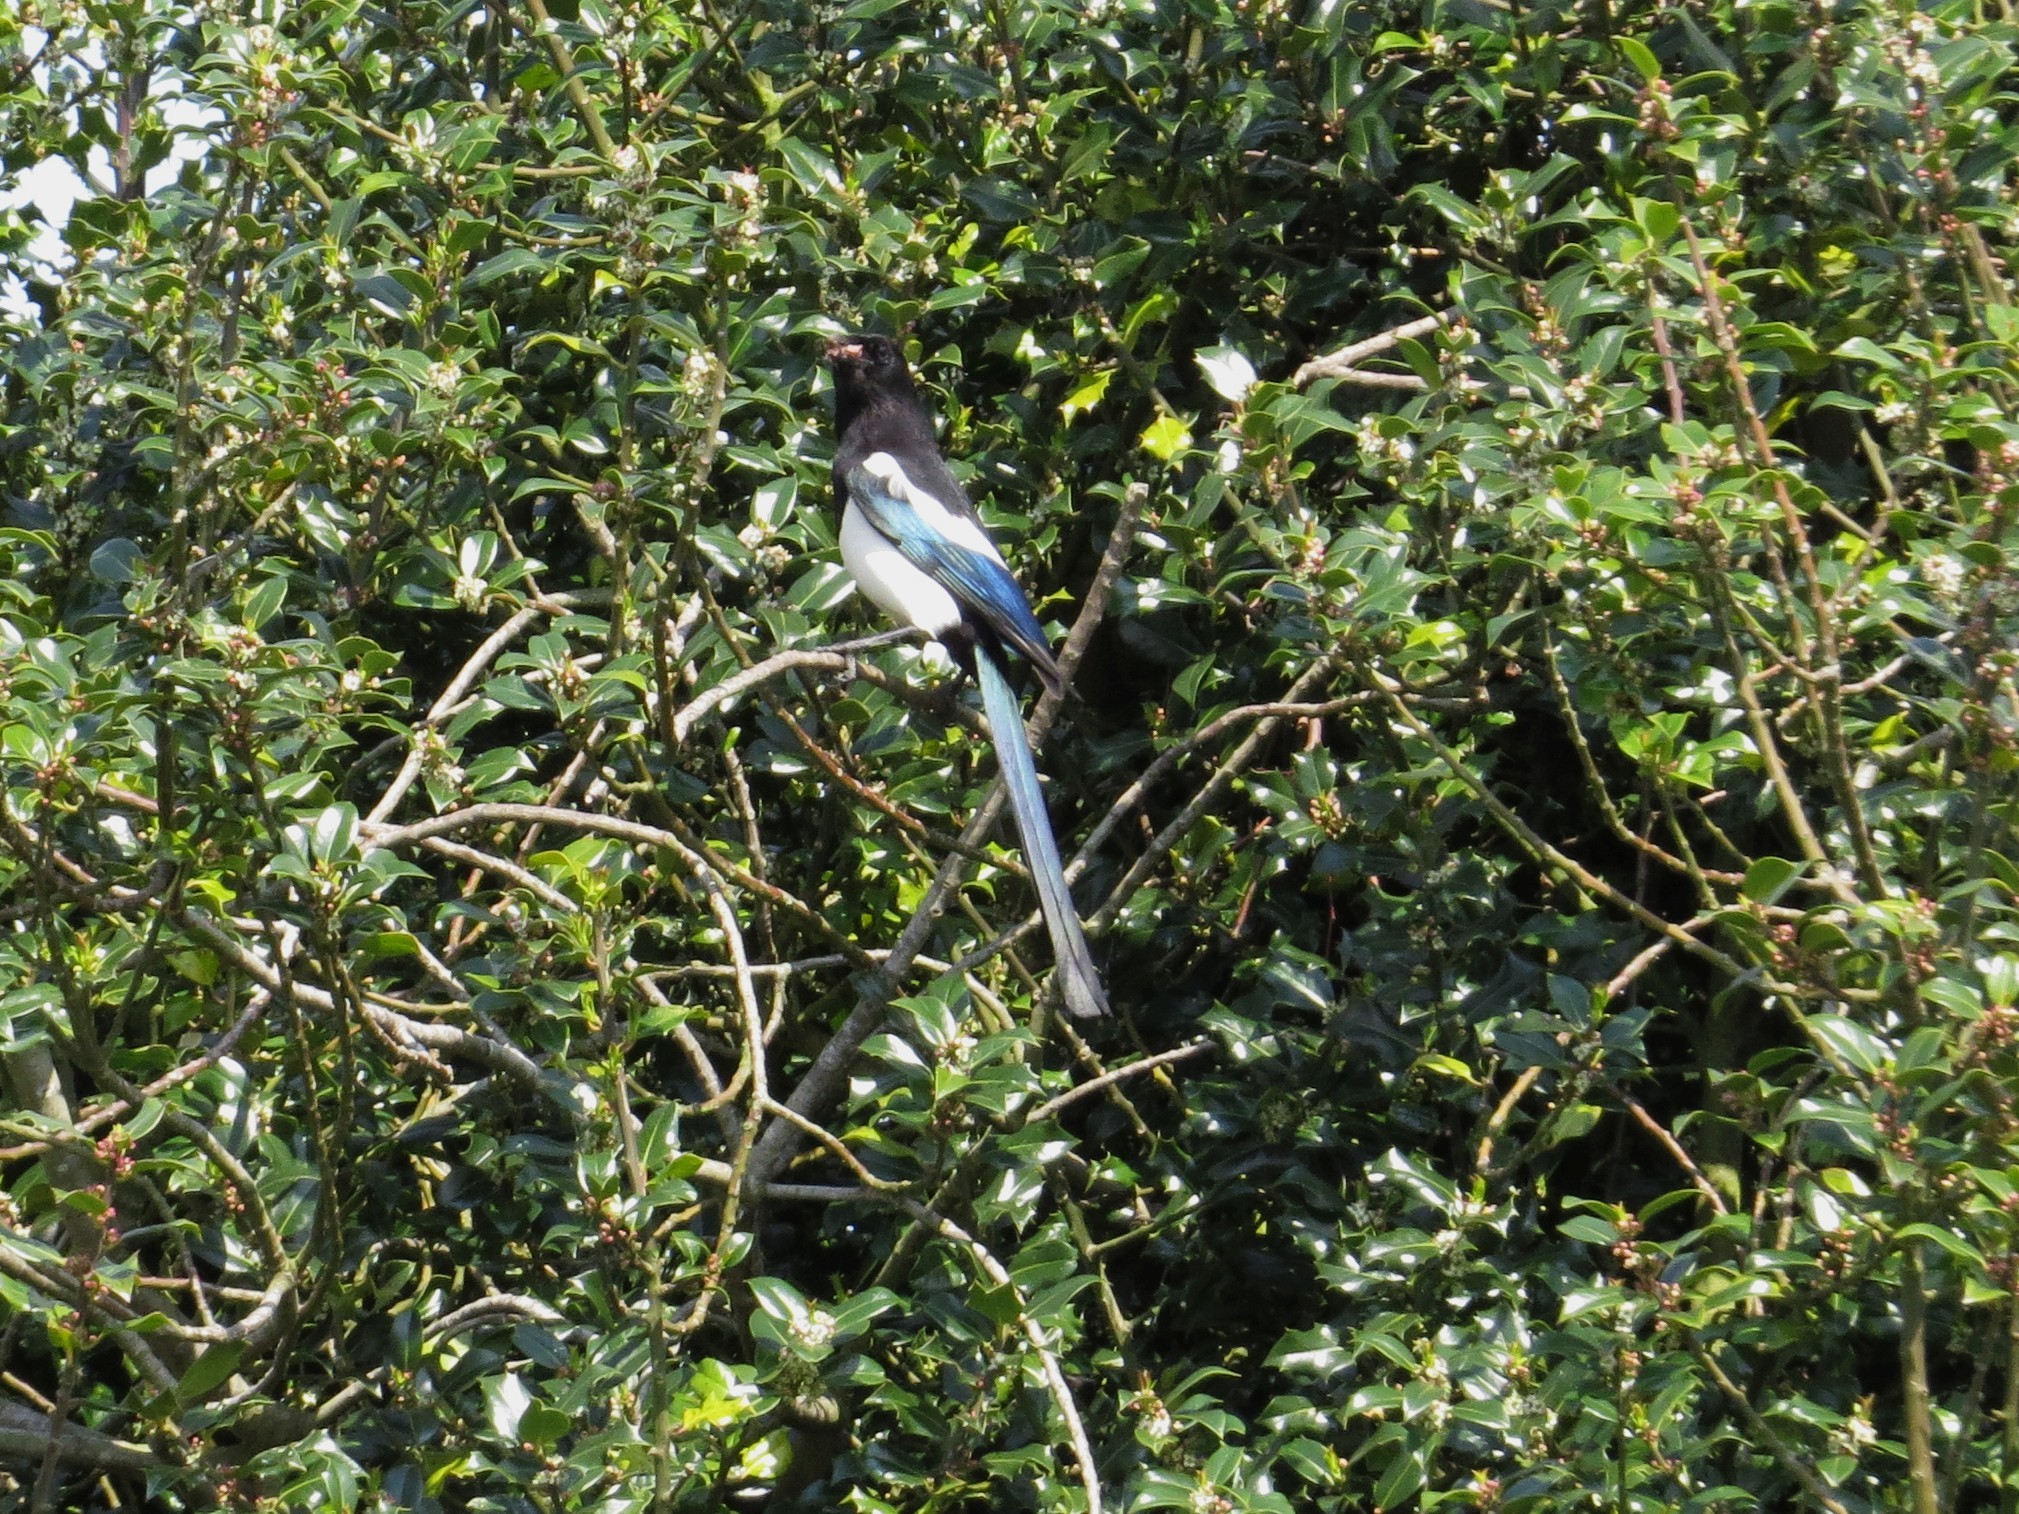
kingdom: Animalia
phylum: Chordata
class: Aves
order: Passeriformes
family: Corvidae
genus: Pica
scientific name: Pica pica
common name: Eurasian magpie
